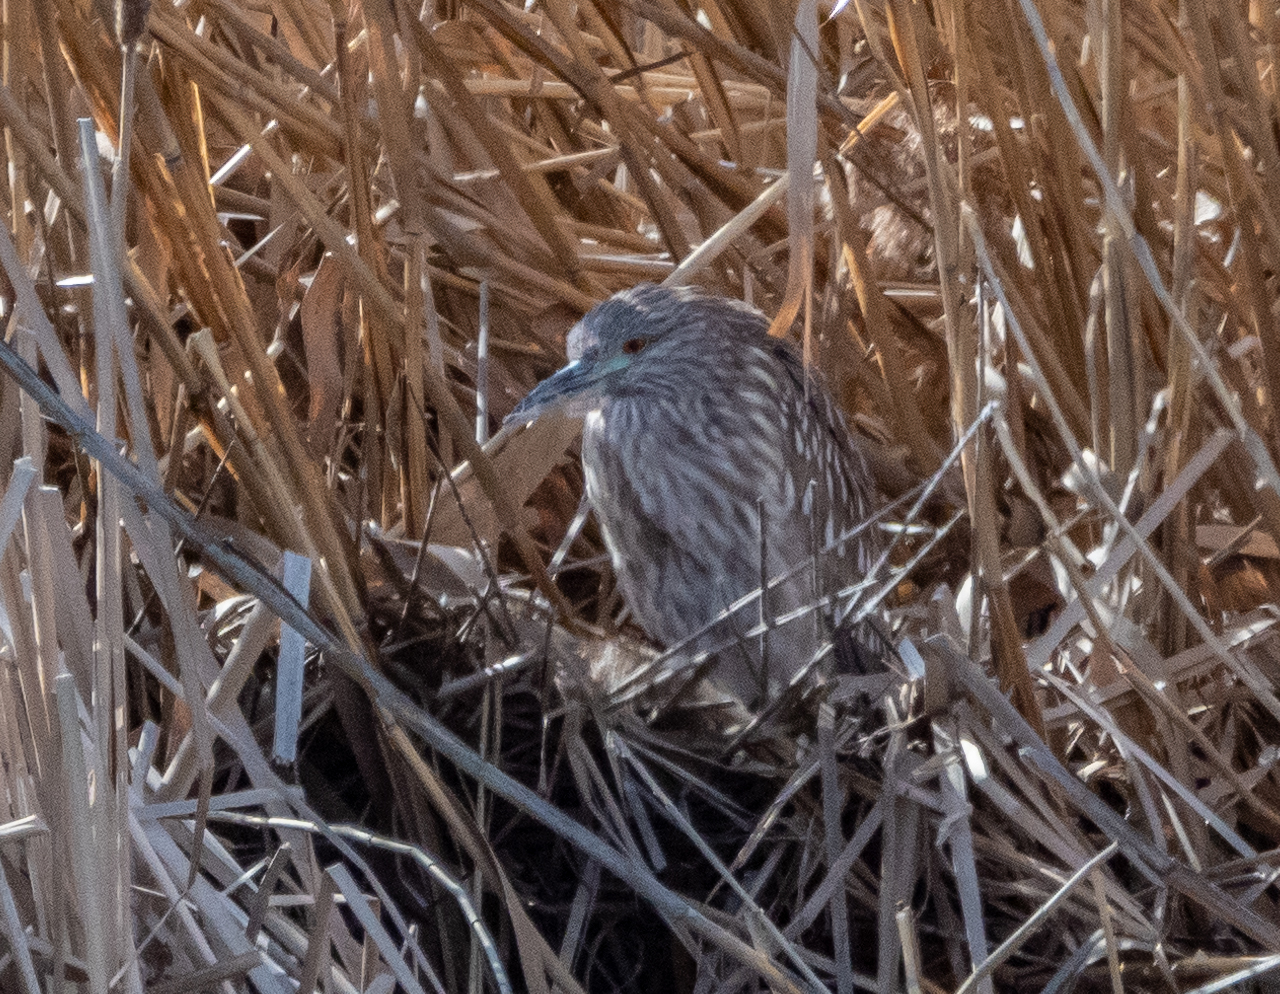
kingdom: Animalia
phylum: Chordata
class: Aves
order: Pelecaniformes
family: Ardeidae
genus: Nycticorax
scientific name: Nycticorax nycticorax
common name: Black-crowned night heron
